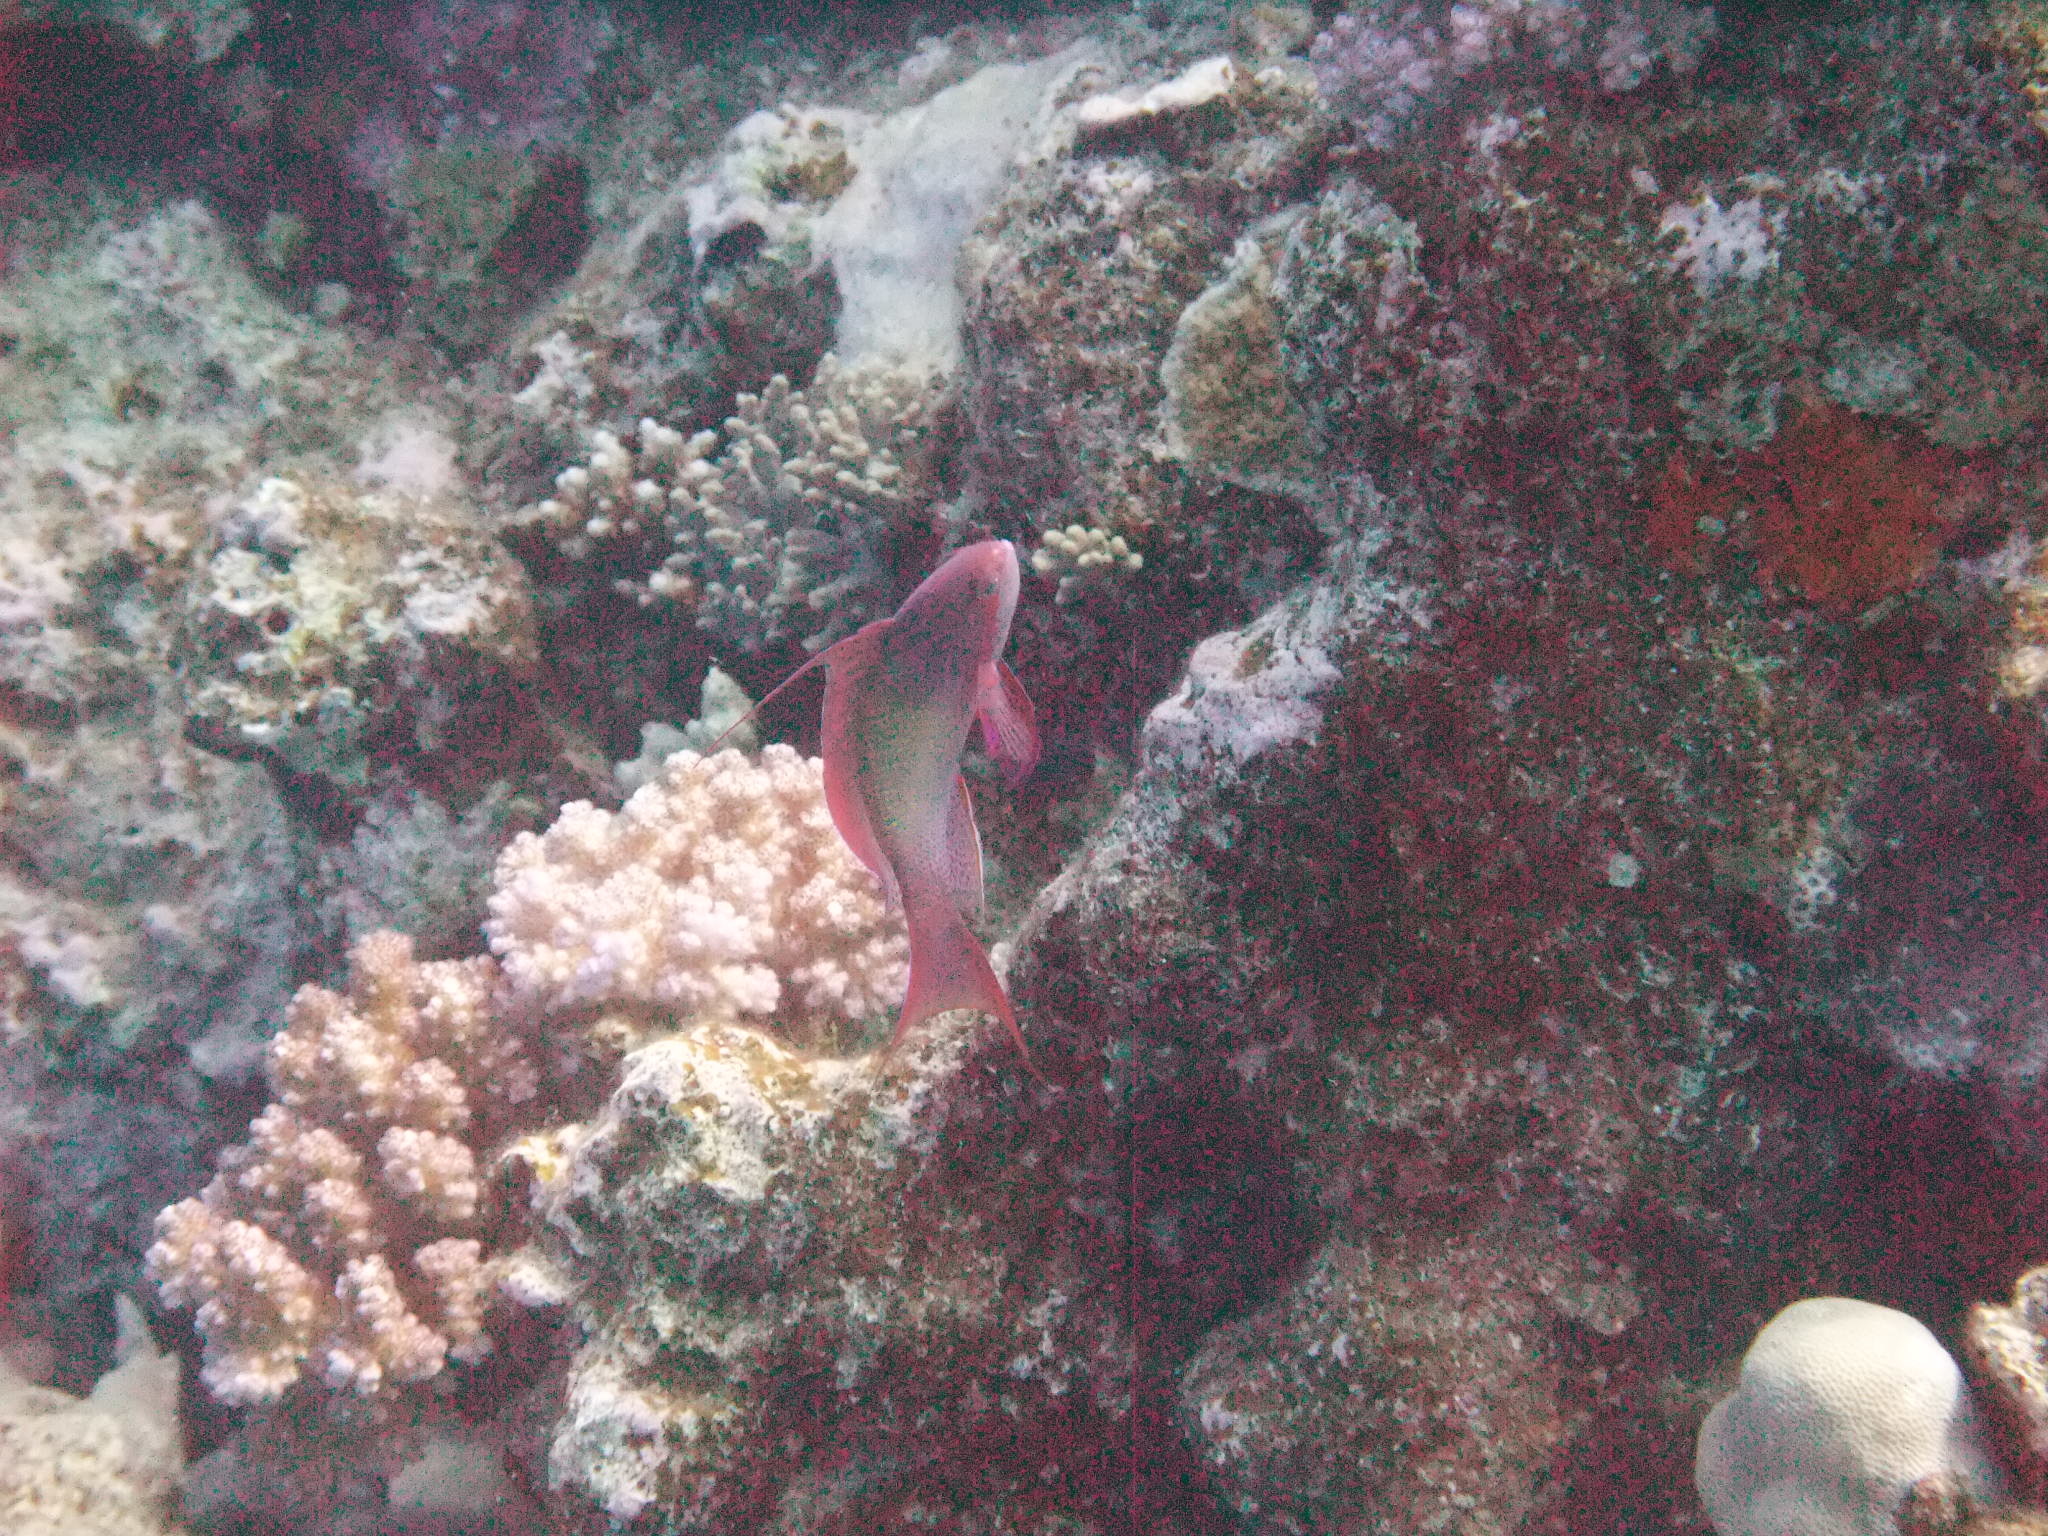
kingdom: Animalia
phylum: Chordata
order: Perciformes
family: Serranidae
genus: Pseudanthias
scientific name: Pseudanthias squamipinnis
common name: Scalefin anthias
